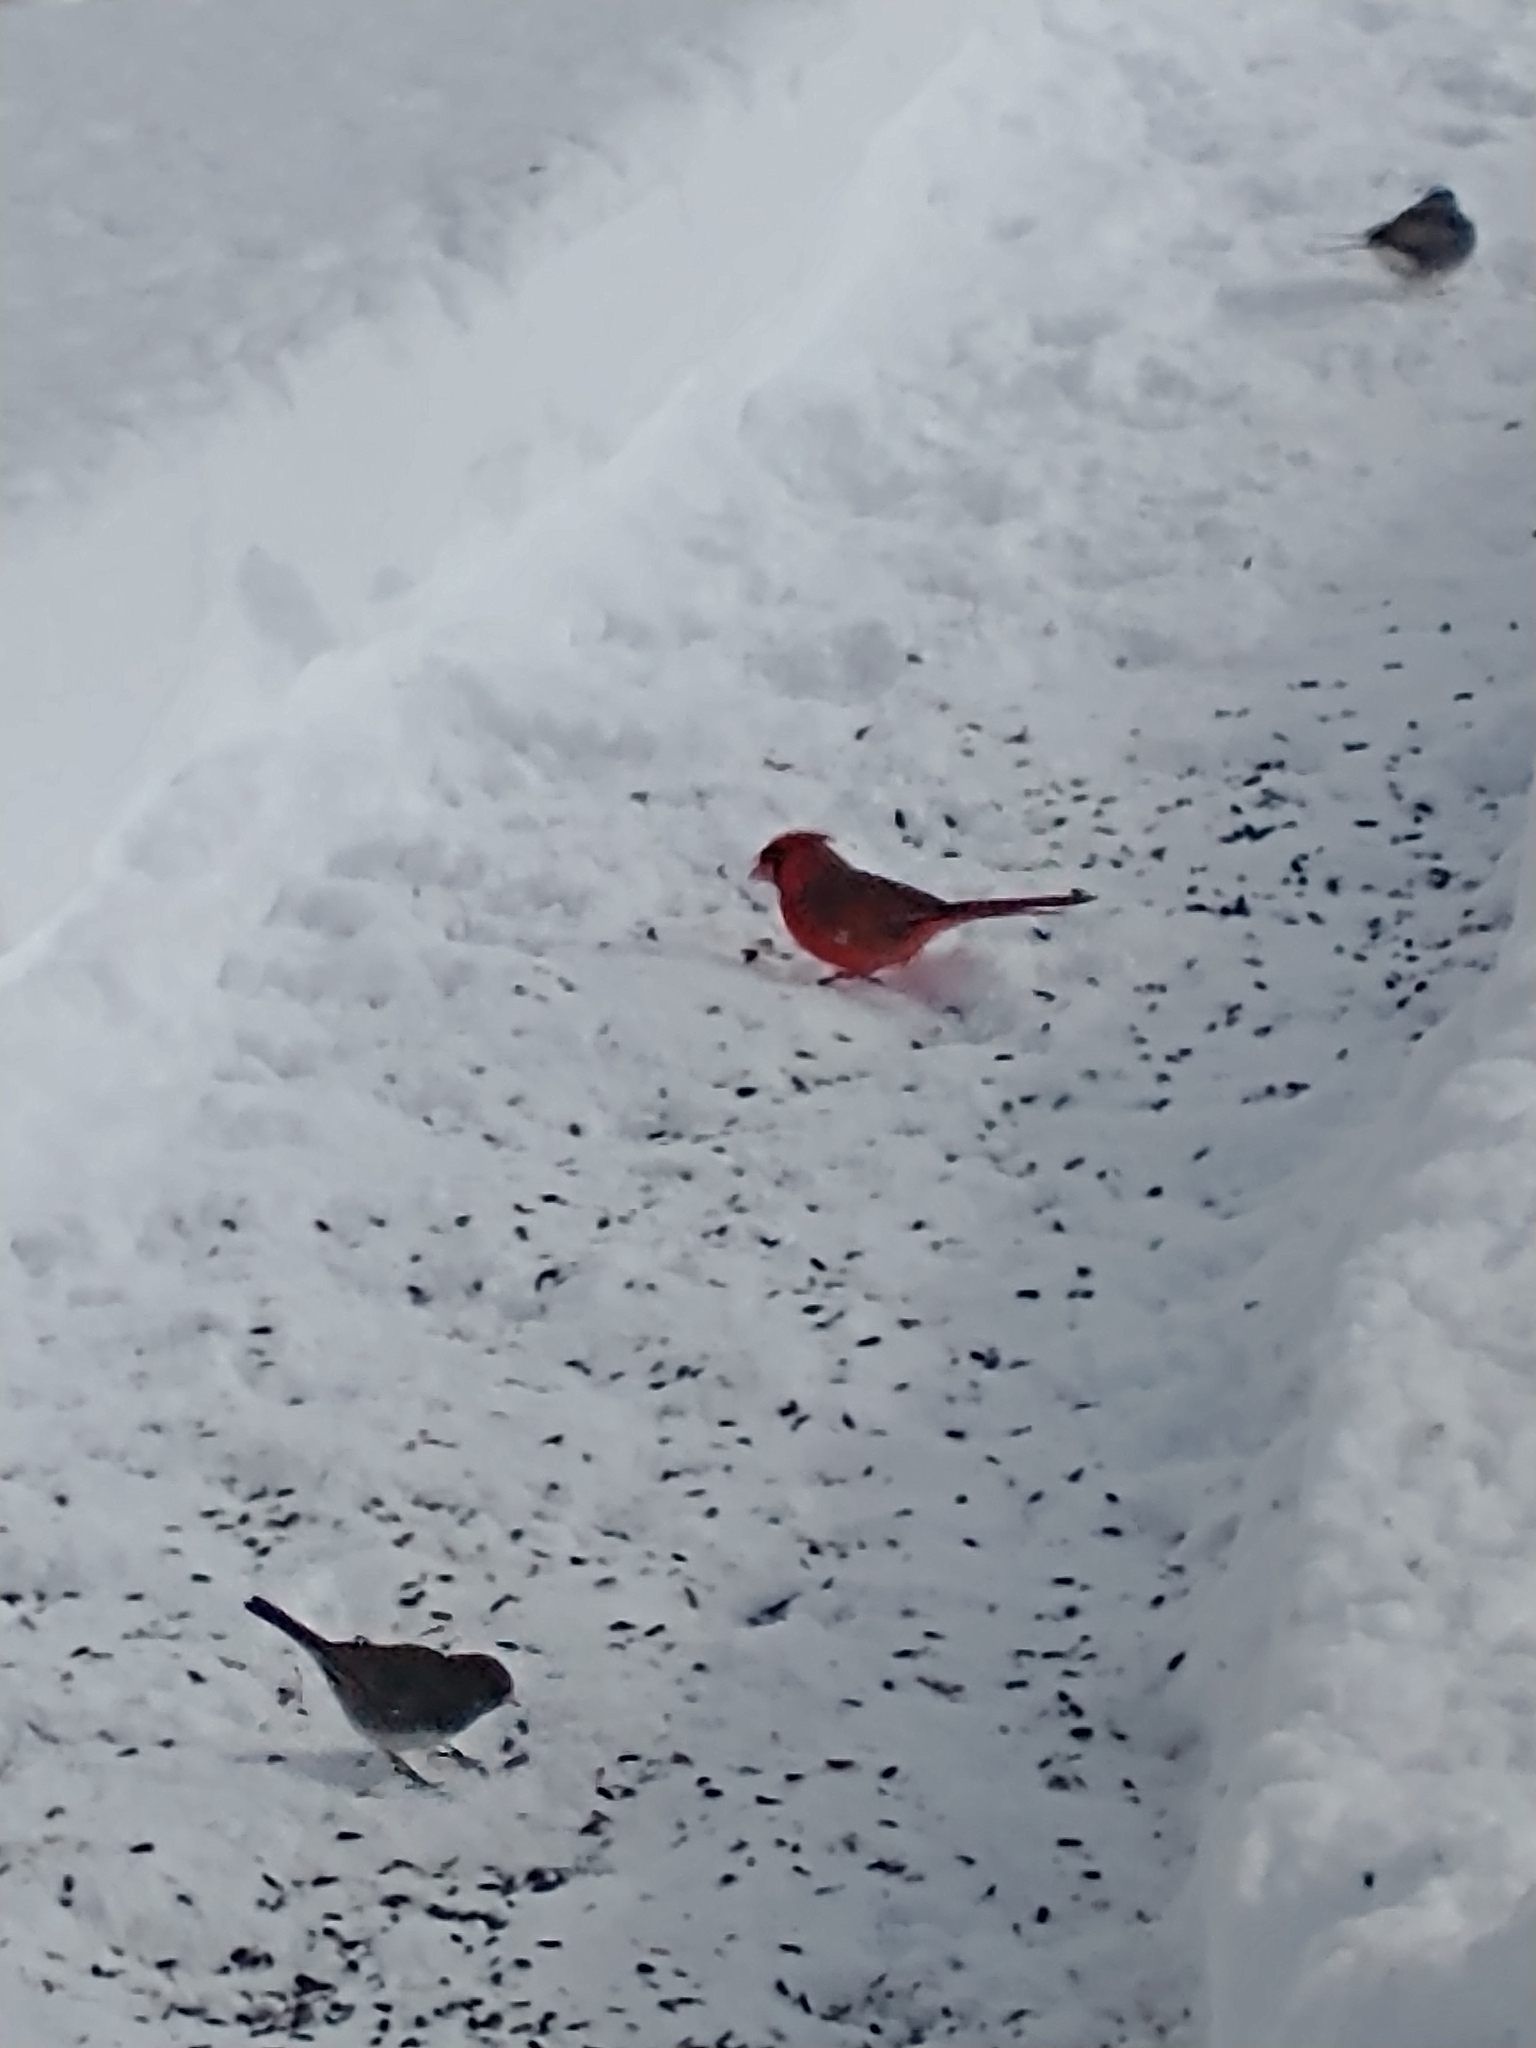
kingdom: Animalia
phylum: Chordata
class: Aves
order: Passeriformes
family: Cardinalidae
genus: Cardinalis
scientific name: Cardinalis cardinalis
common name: Northern cardinal
